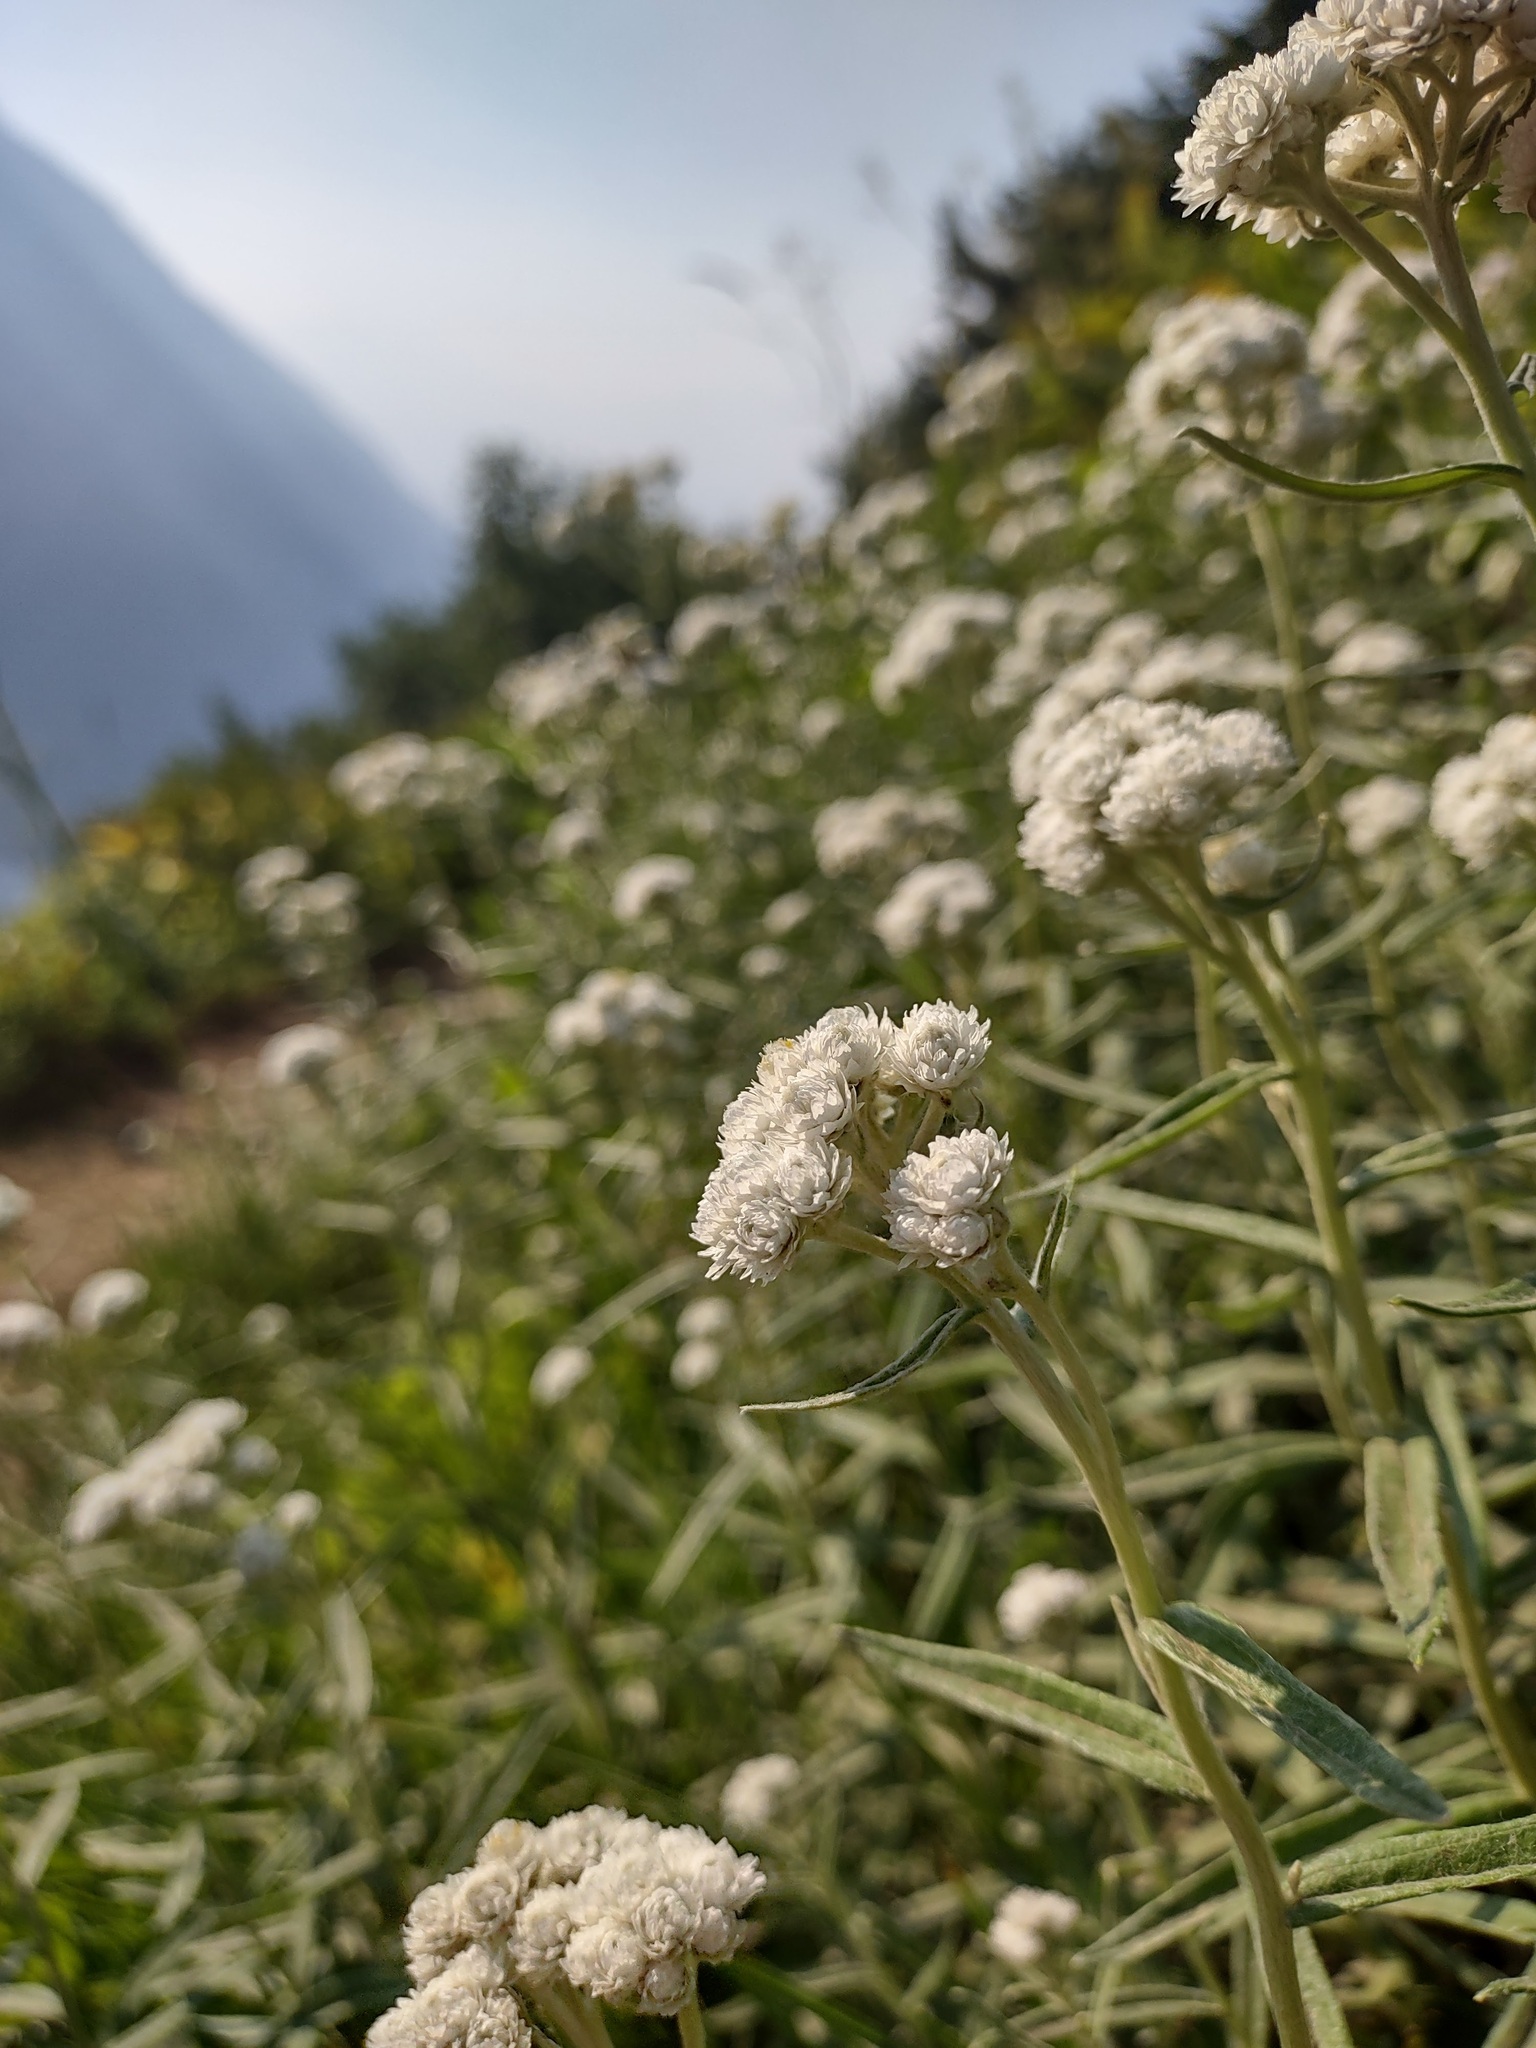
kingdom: Plantae
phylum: Tracheophyta
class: Magnoliopsida
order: Asterales
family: Asteraceae
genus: Anaphalis
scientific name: Anaphalis margaritacea
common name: Pearly everlasting
